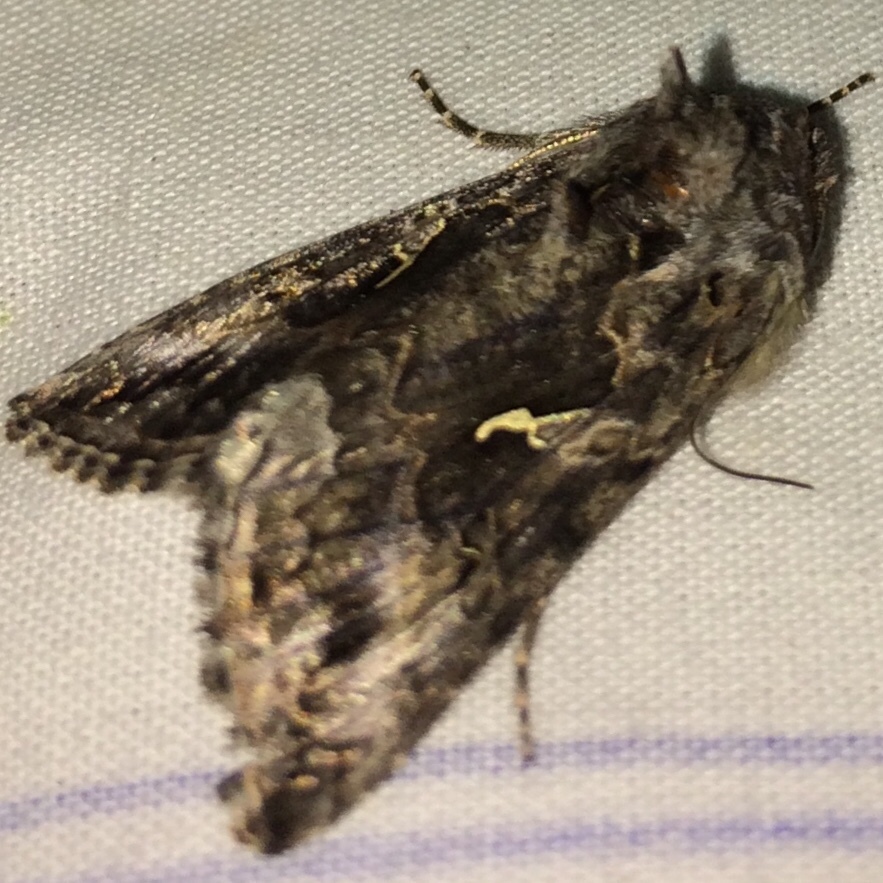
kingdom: Animalia
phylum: Arthropoda
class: Insecta
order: Lepidoptera
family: Noctuidae
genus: Autographa
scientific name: Autographa californica
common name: Alfalfa looper
